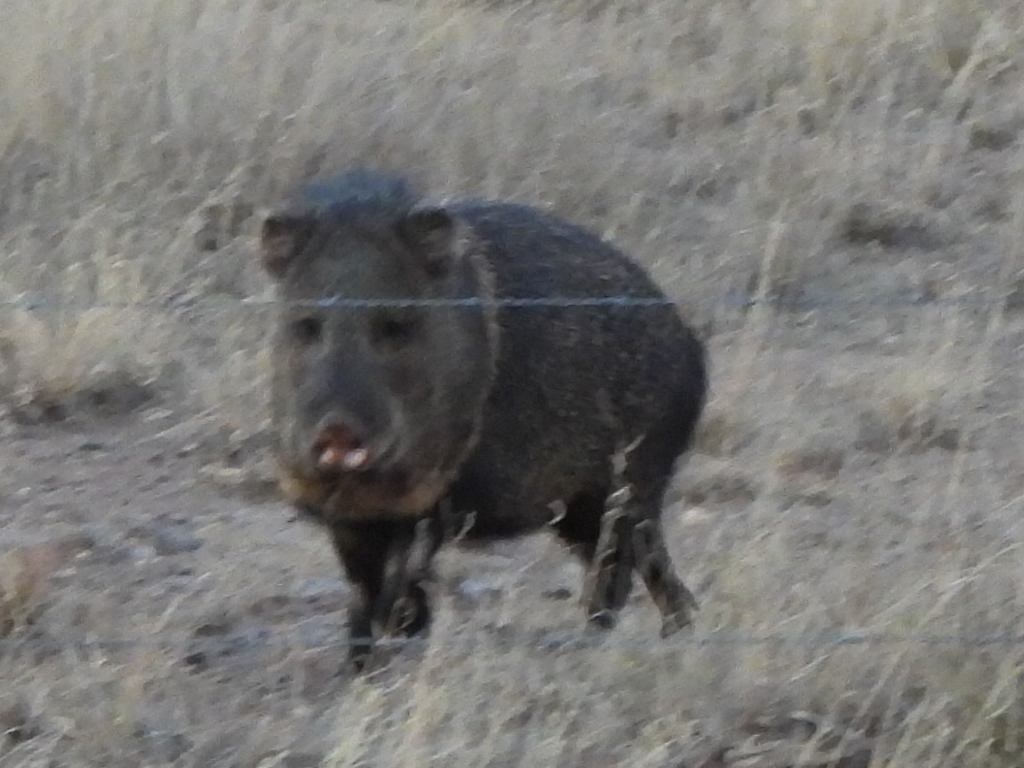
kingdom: Animalia
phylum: Chordata
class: Mammalia
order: Artiodactyla
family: Tayassuidae
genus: Pecari
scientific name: Pecari tajacu
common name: Collared peccary
